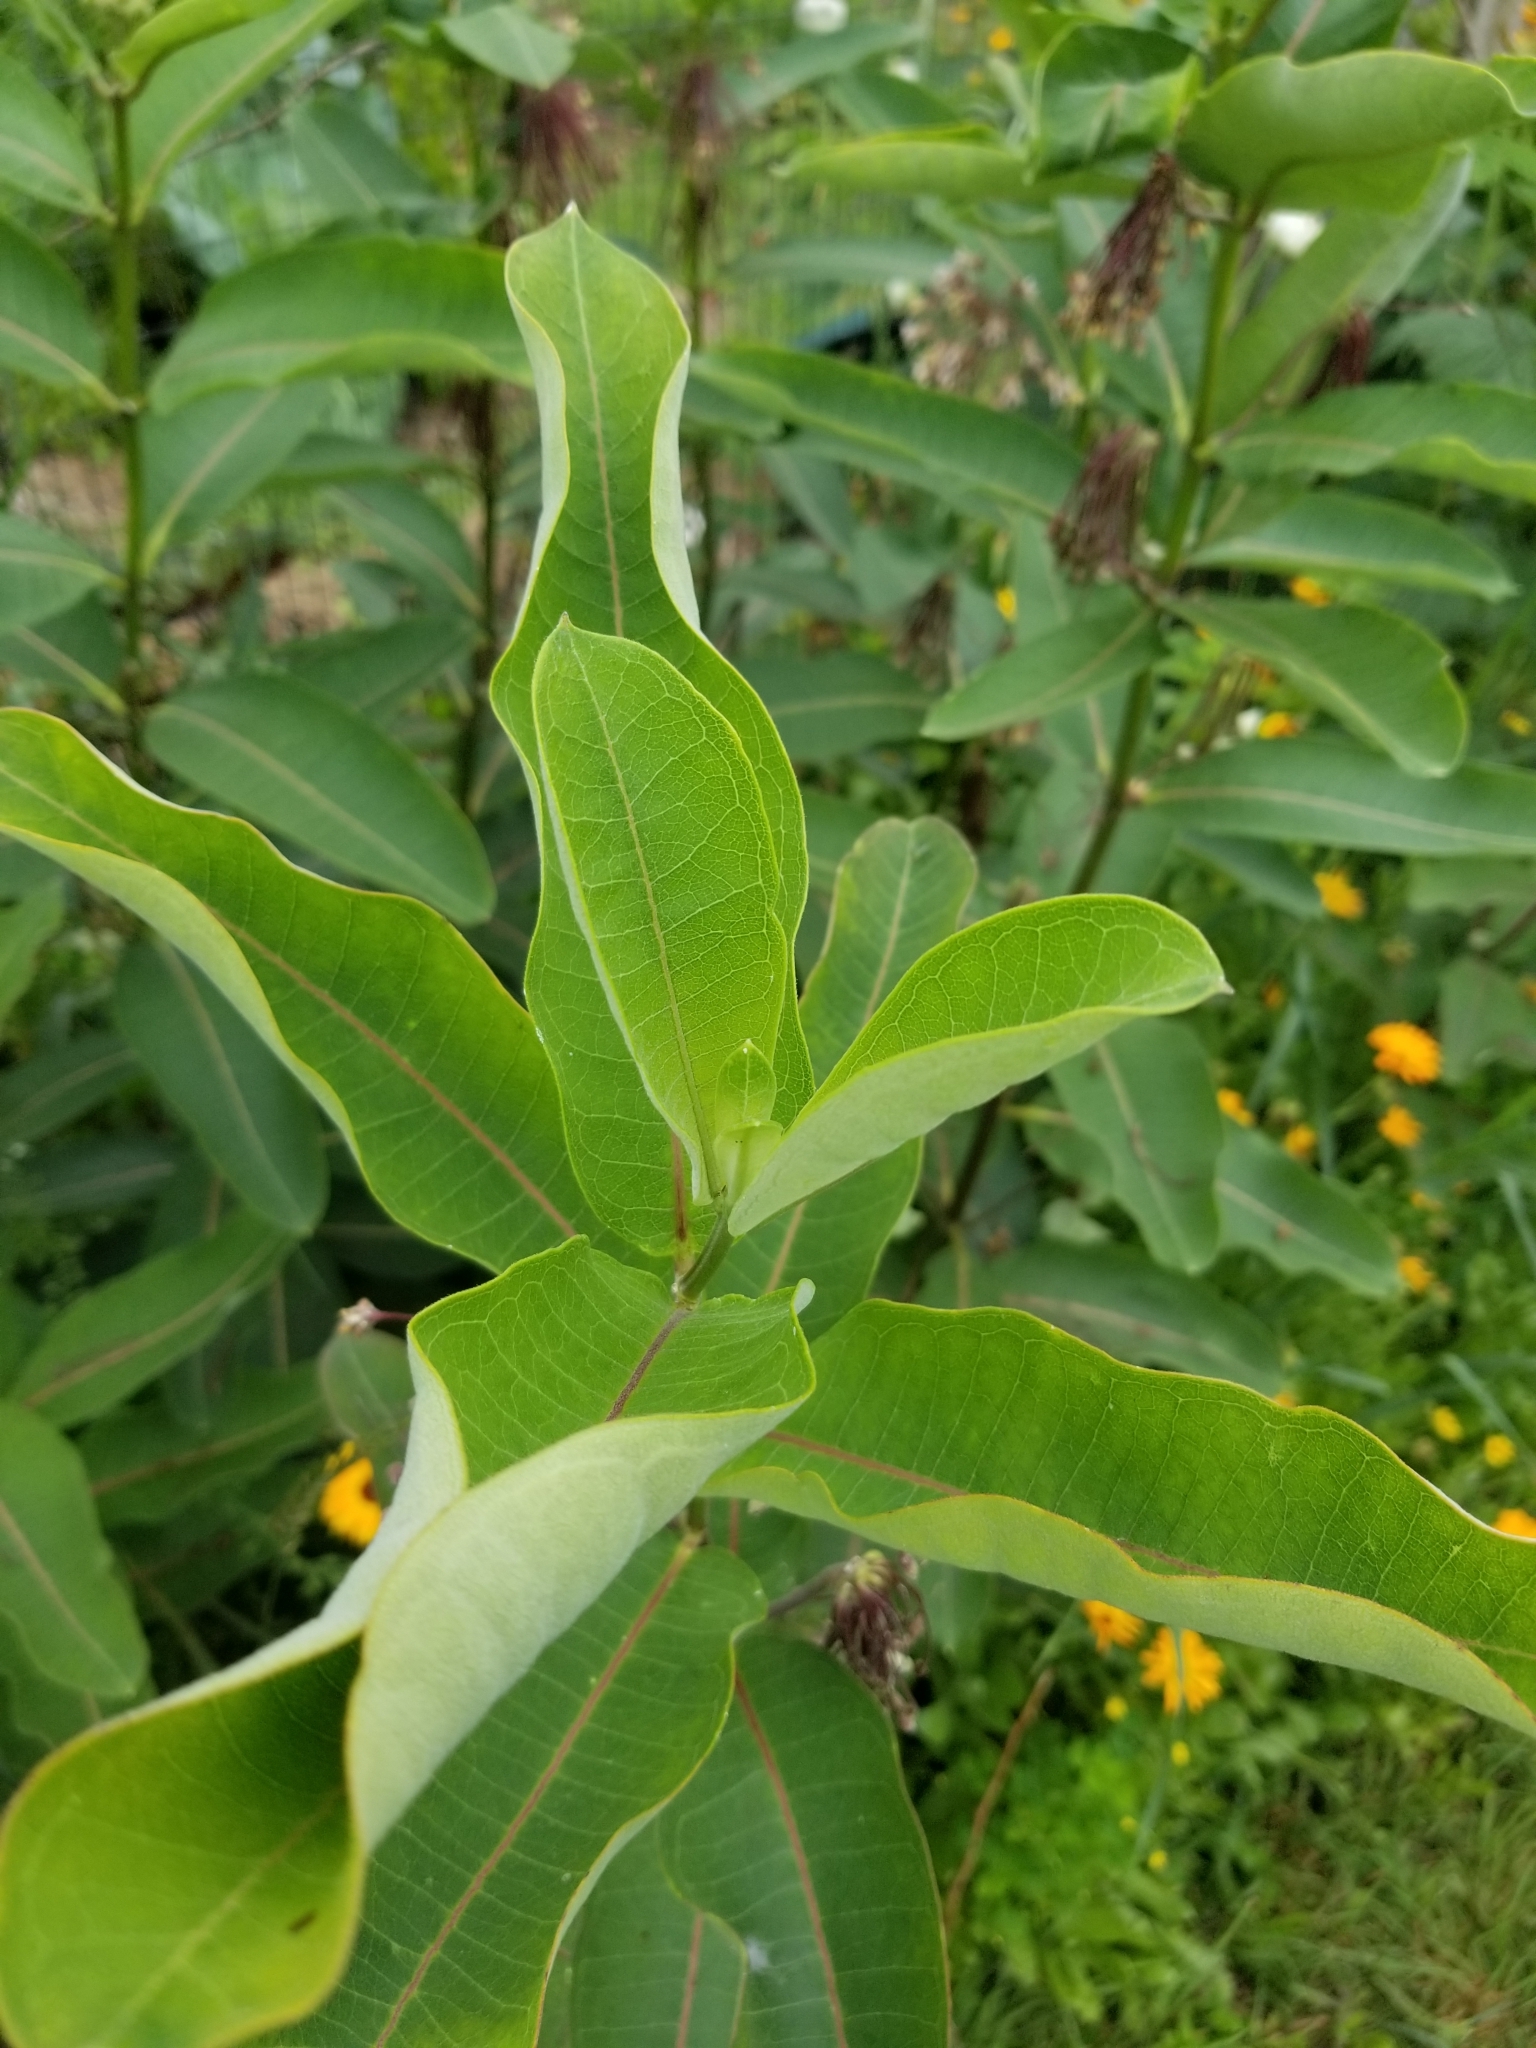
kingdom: Plantae
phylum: Tracheophyta
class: Magnoliopsida
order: Gentianales
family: Apocynaceae
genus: Asclepias
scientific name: Asclepias syriaca
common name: Common milkweed
